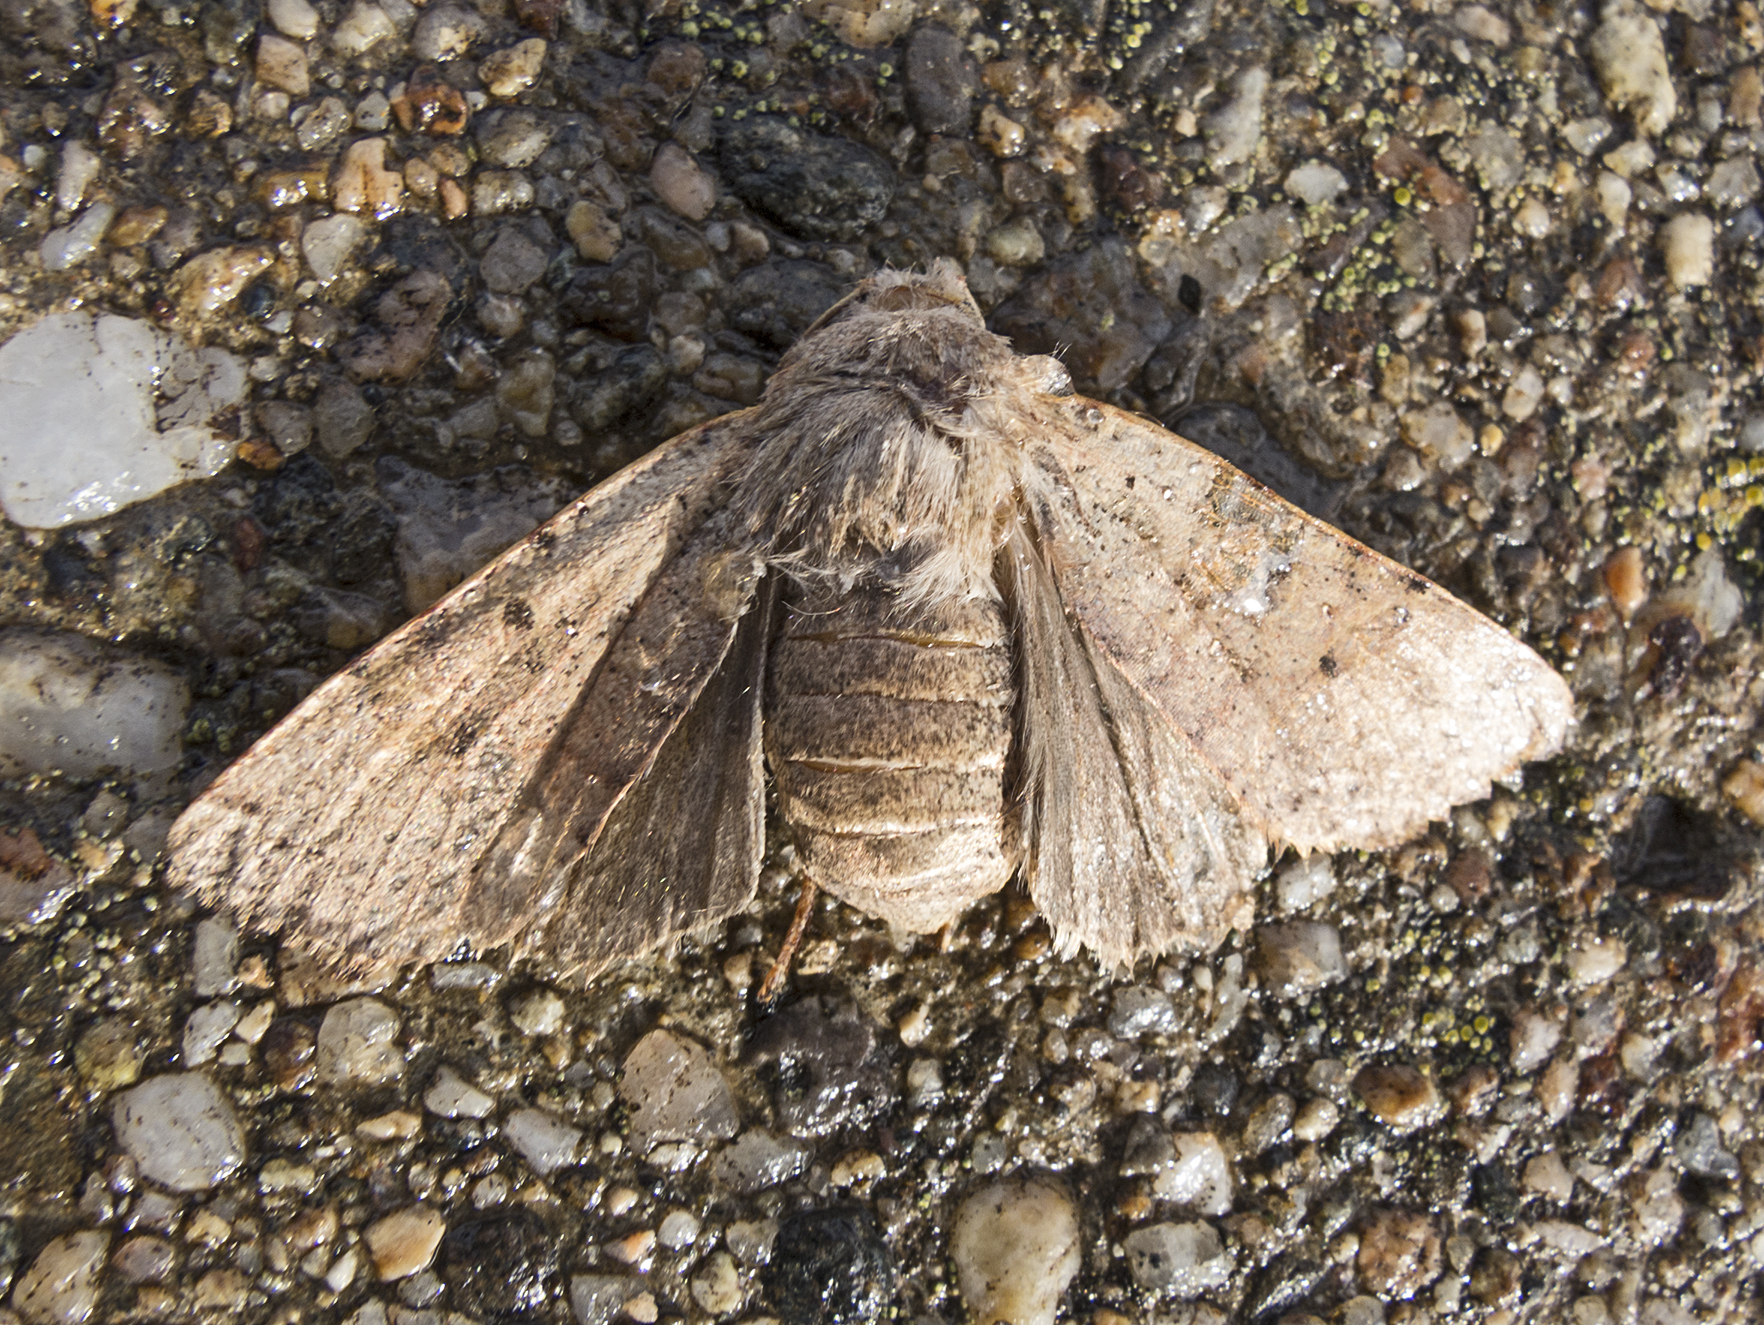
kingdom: Animalia
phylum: Arthropoda
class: Insecta
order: Lepidoptera
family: Noctuidae
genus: Agrochola
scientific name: Agrochola lychnidis
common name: Beaded chestnut
